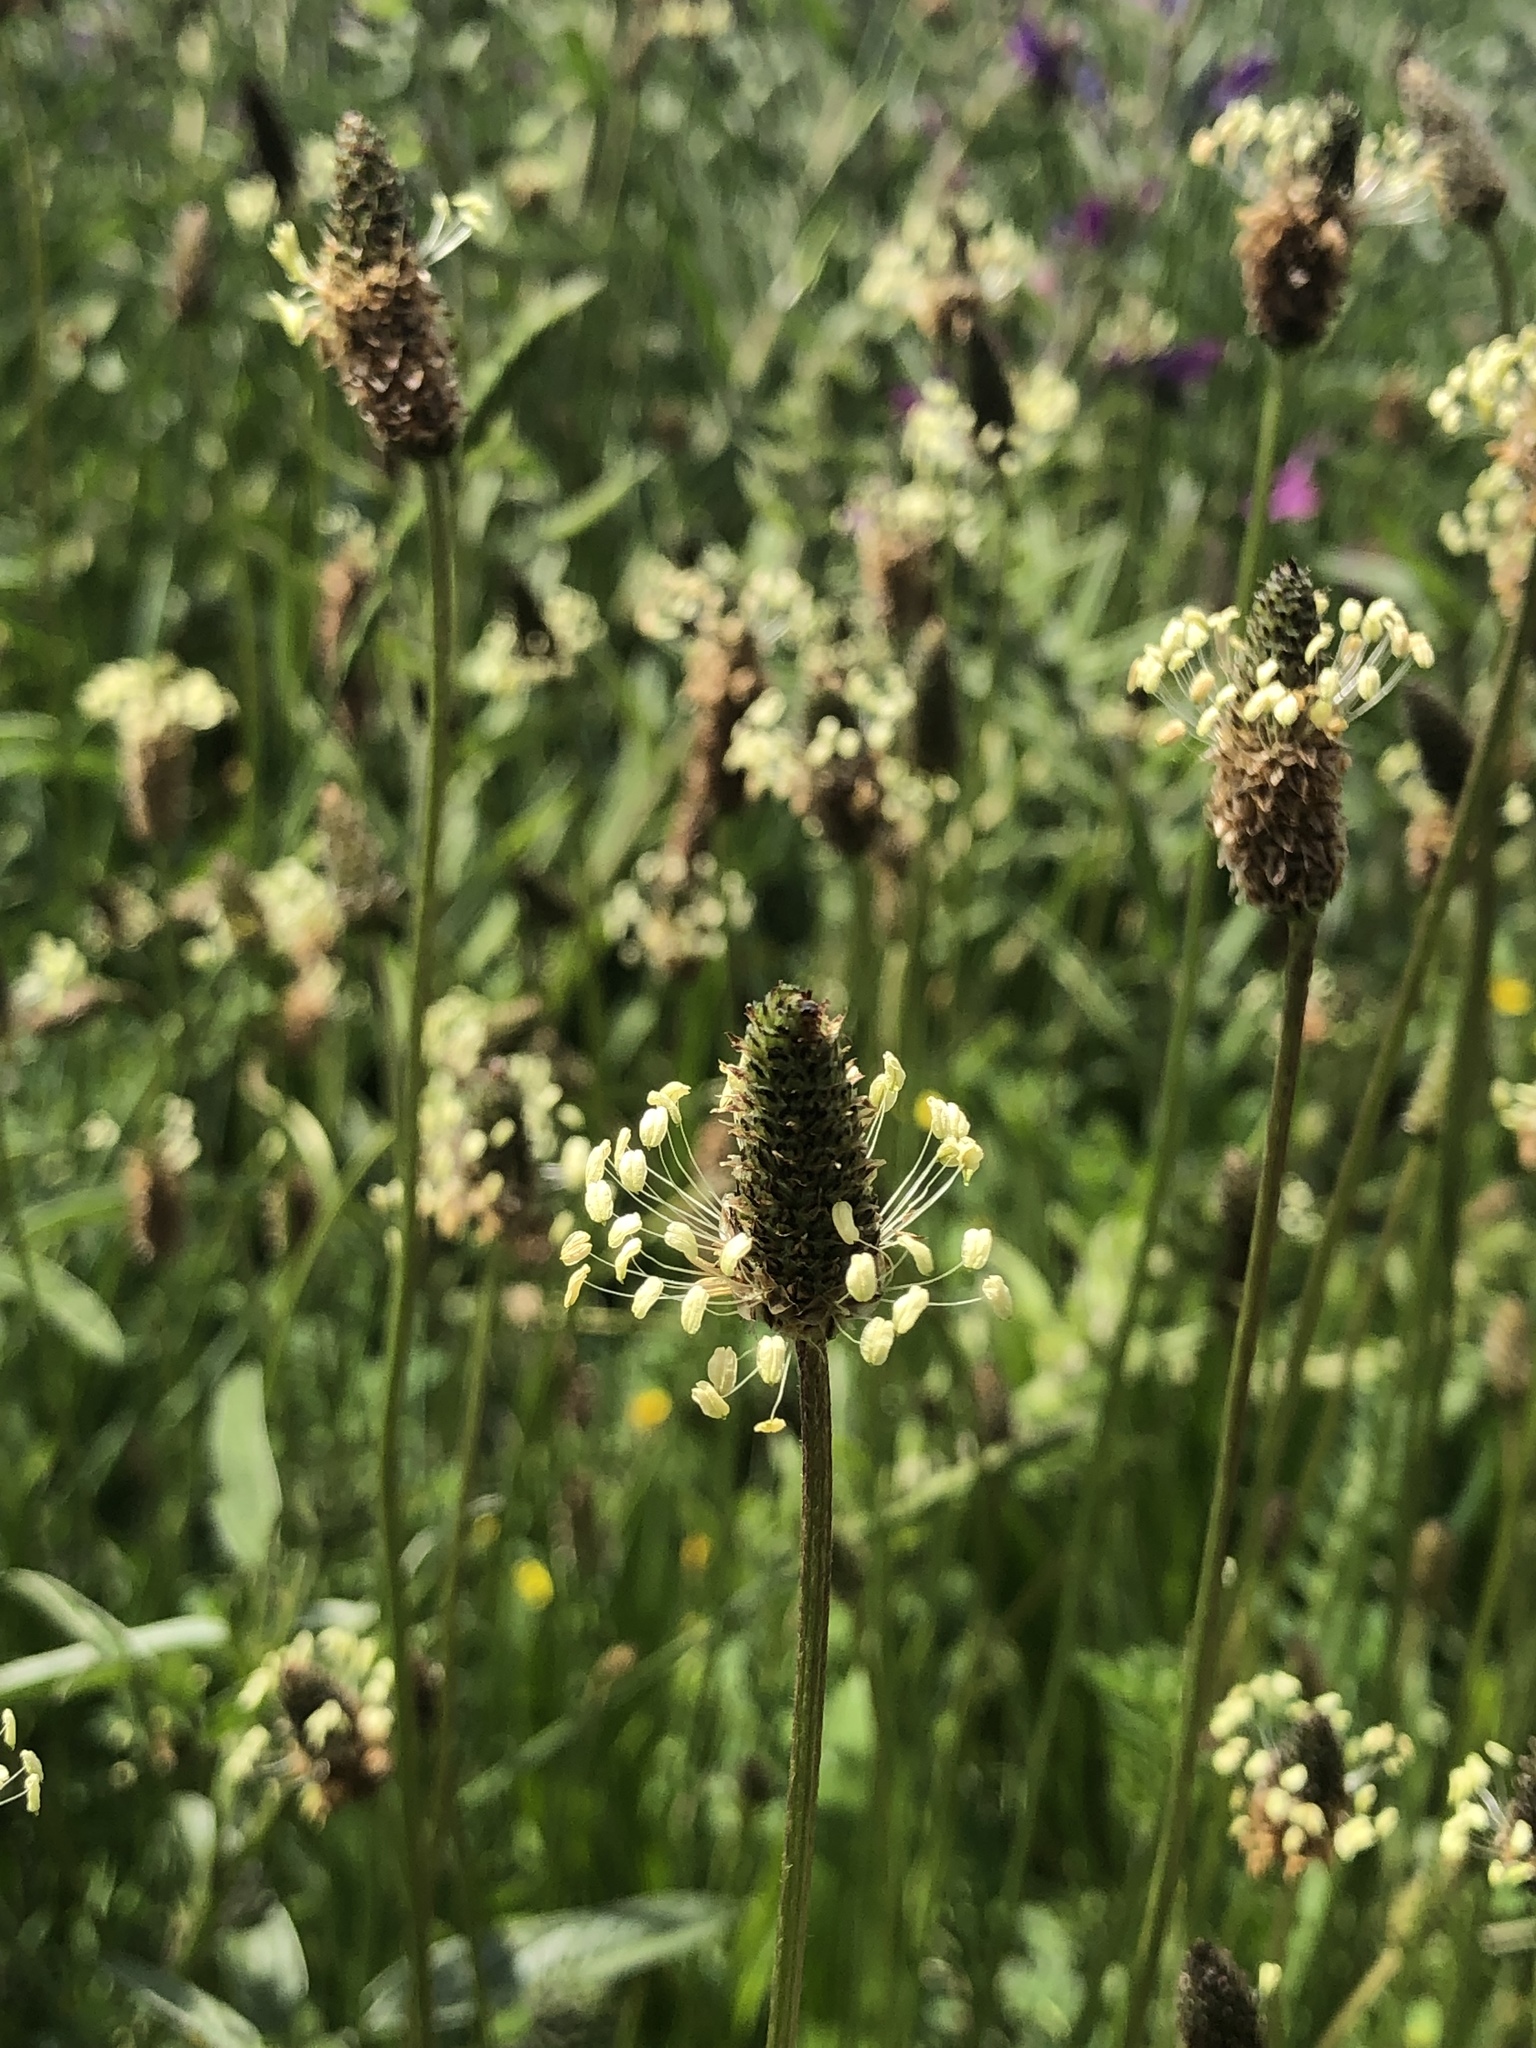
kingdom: Plantae
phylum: Tracheophyta
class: Magnoliopsida
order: Lamiales
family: Plantaginaceae
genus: Plantago
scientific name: Plantago lanceolata
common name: Ribwort plantain
